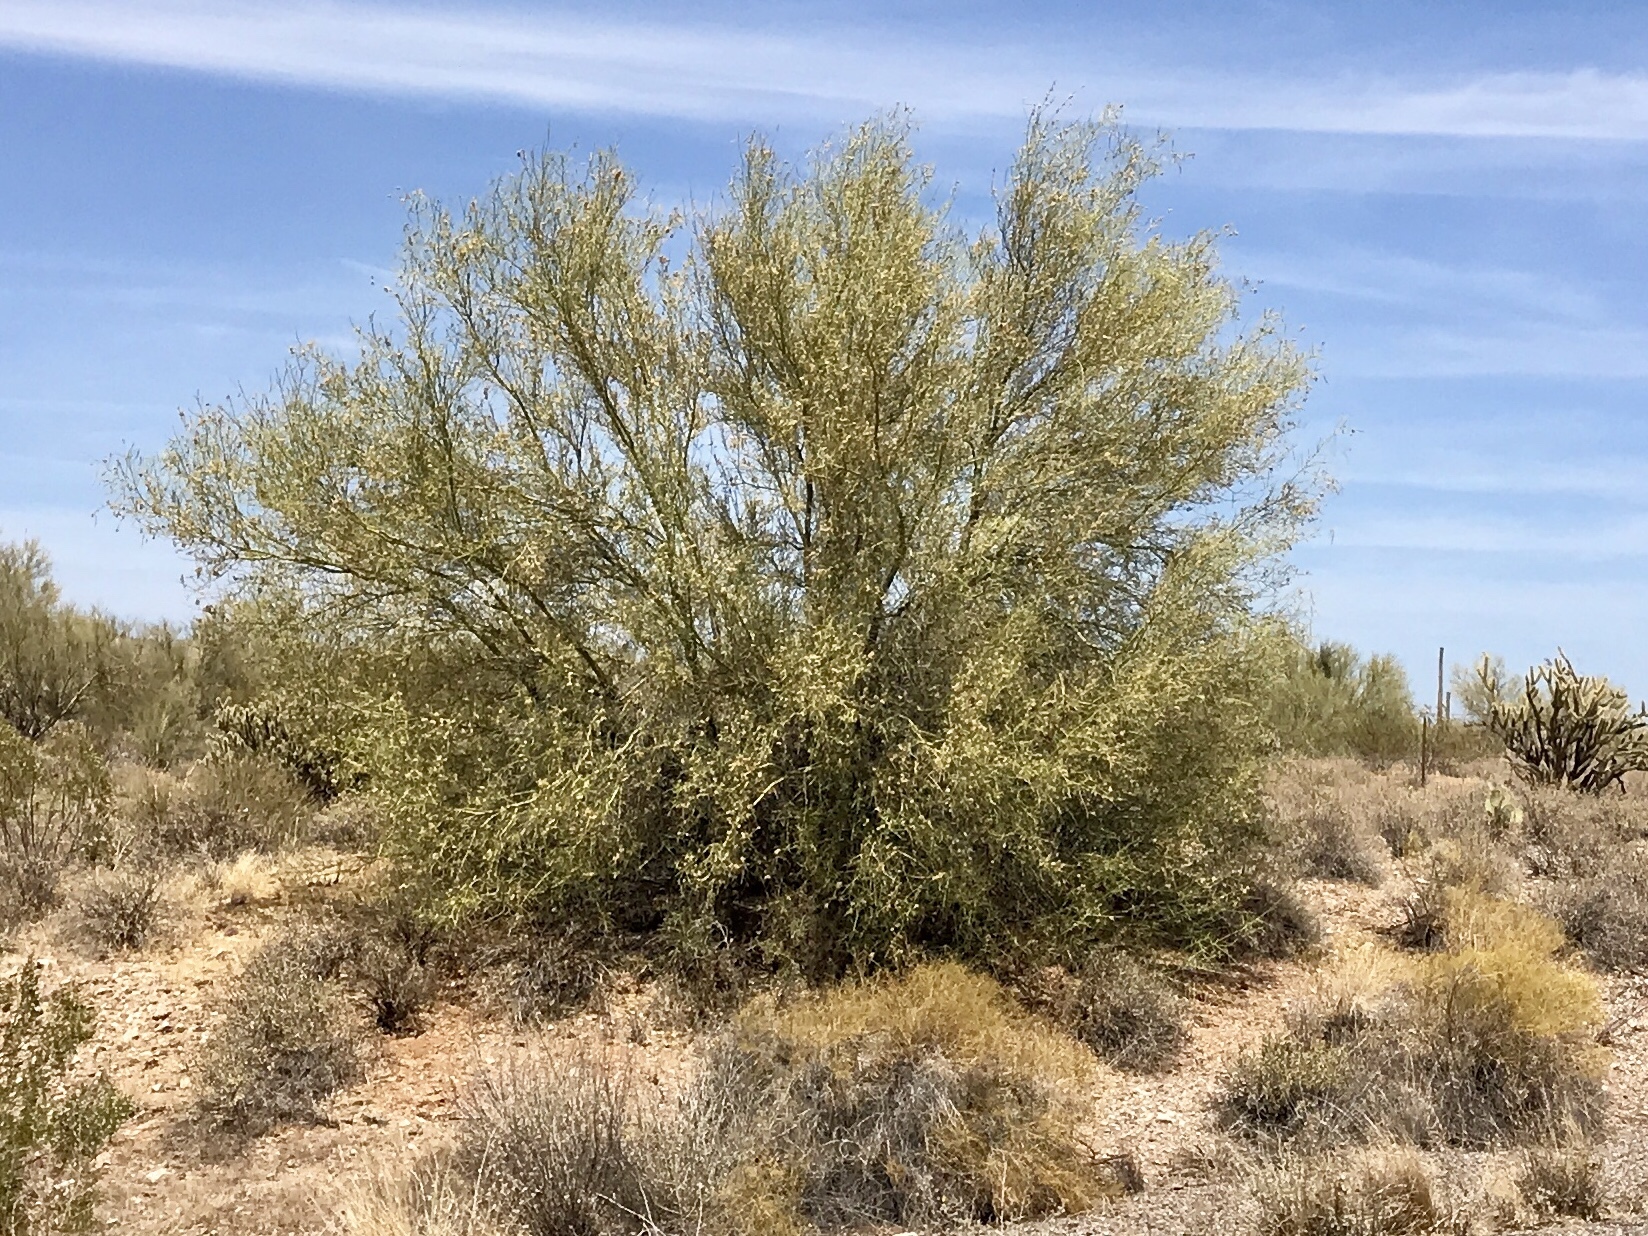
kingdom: Plantae
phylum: Tracheophyta
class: Magnoliopsida
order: Fabales
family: Fabaceae
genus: Parkinsonia
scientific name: Parkinsonia microphylla
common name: Yellow paloverde
